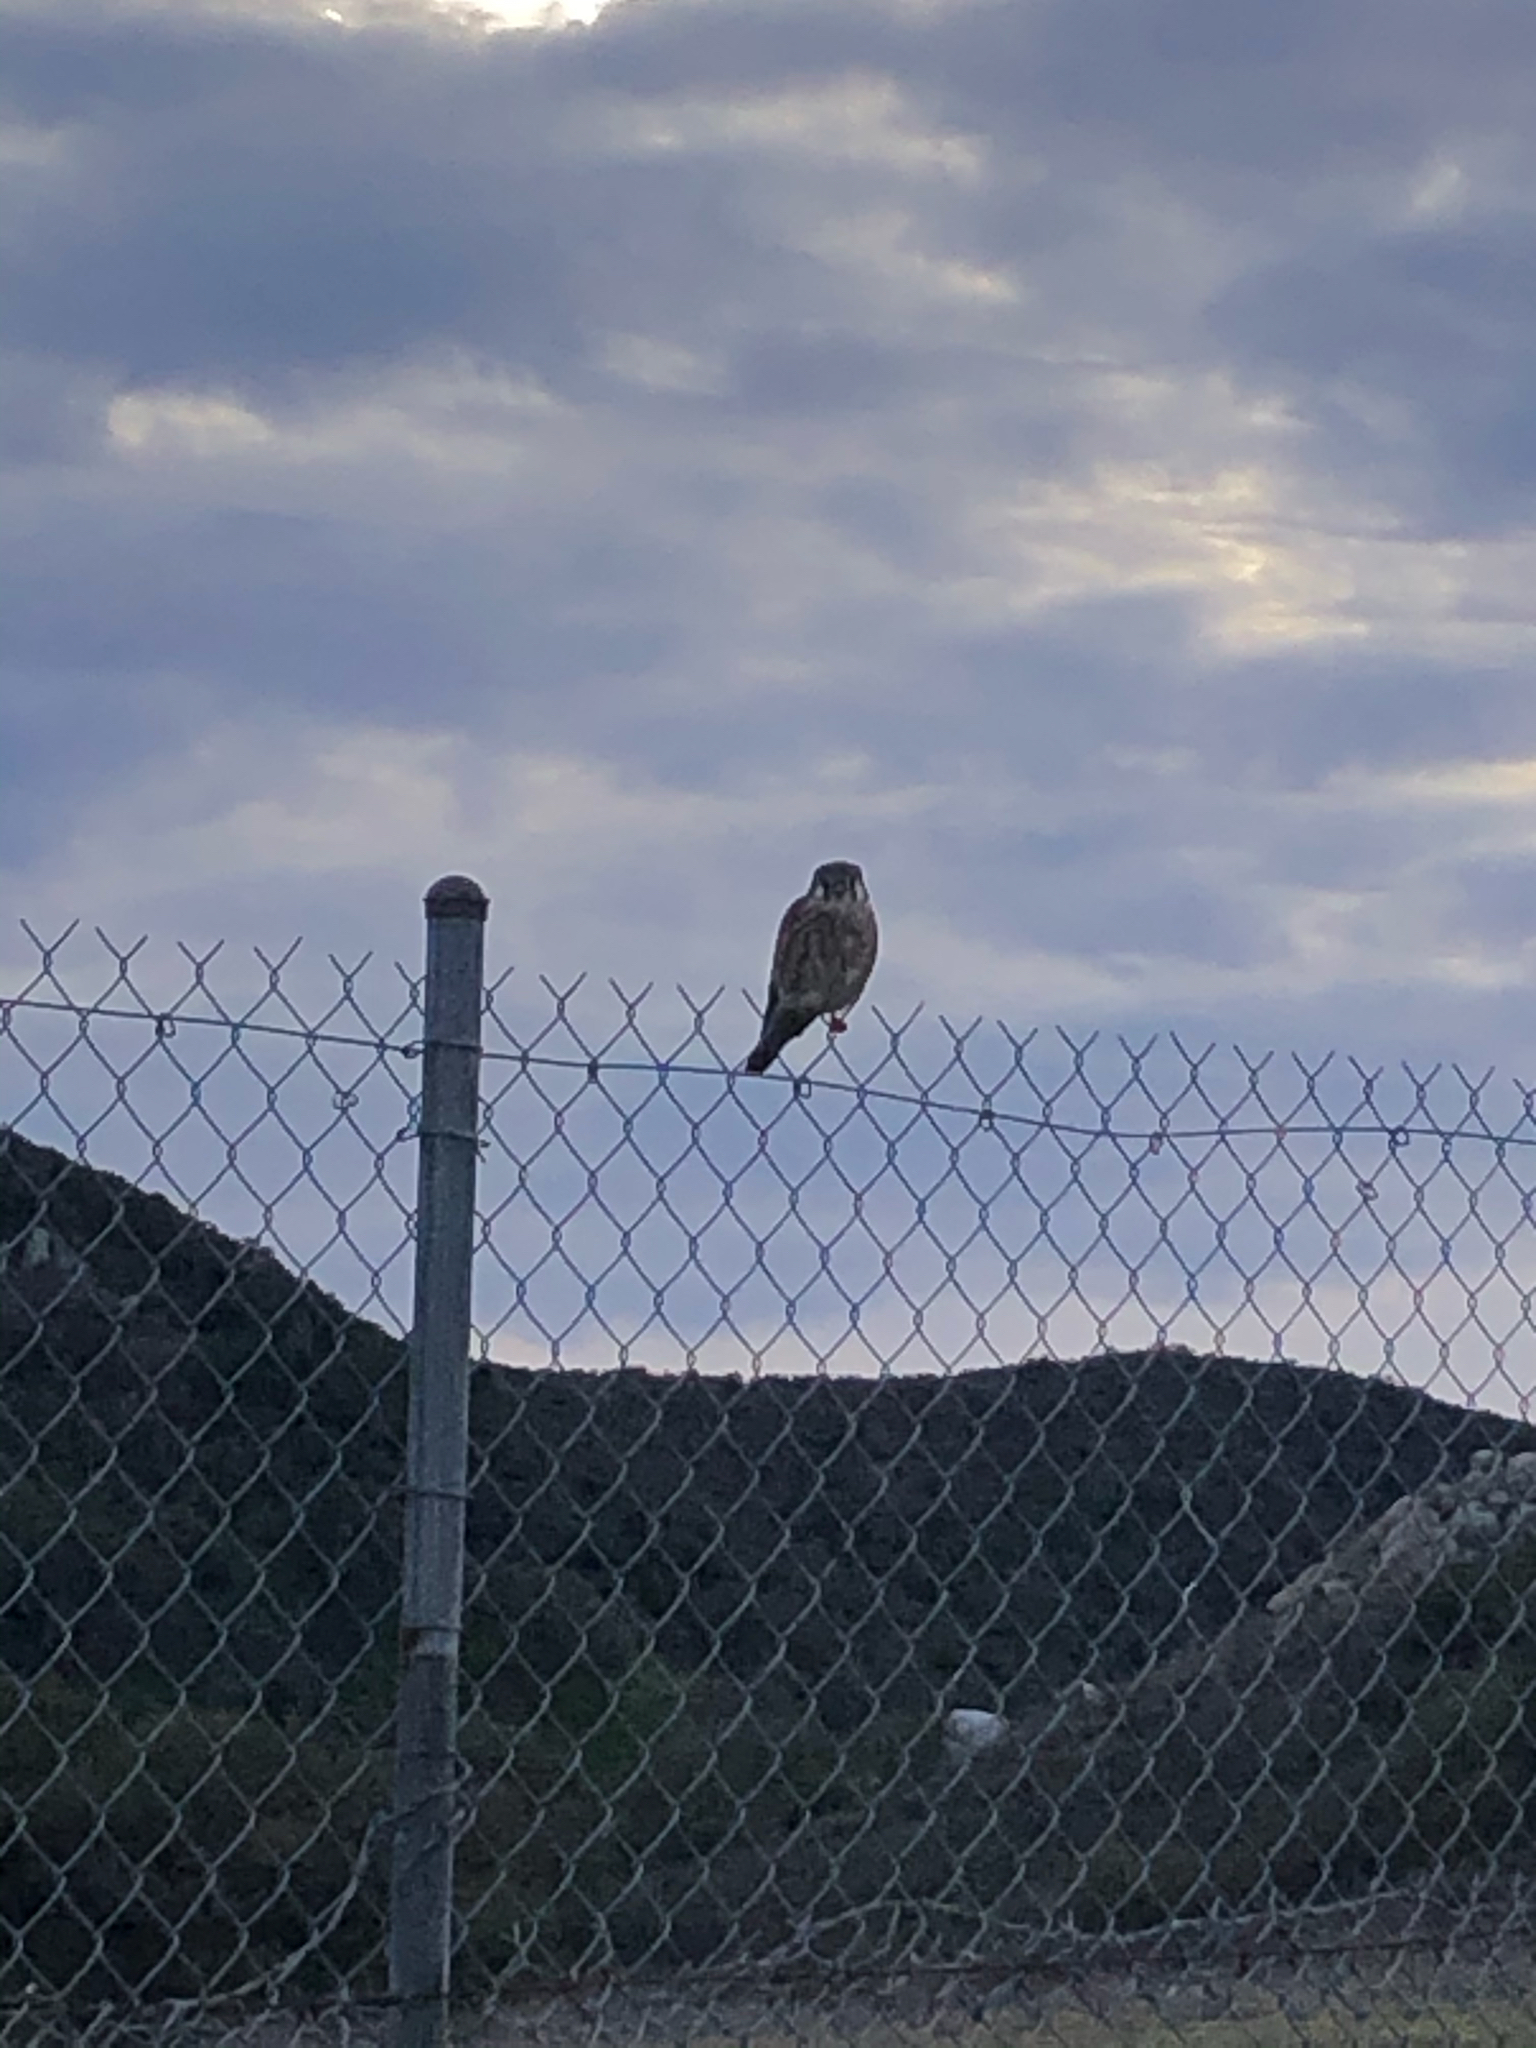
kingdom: Animalia
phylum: Chordata
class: Aves
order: Falconiformes
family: Falconidae
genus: Falco
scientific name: Falco sparverius
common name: American kestrel
